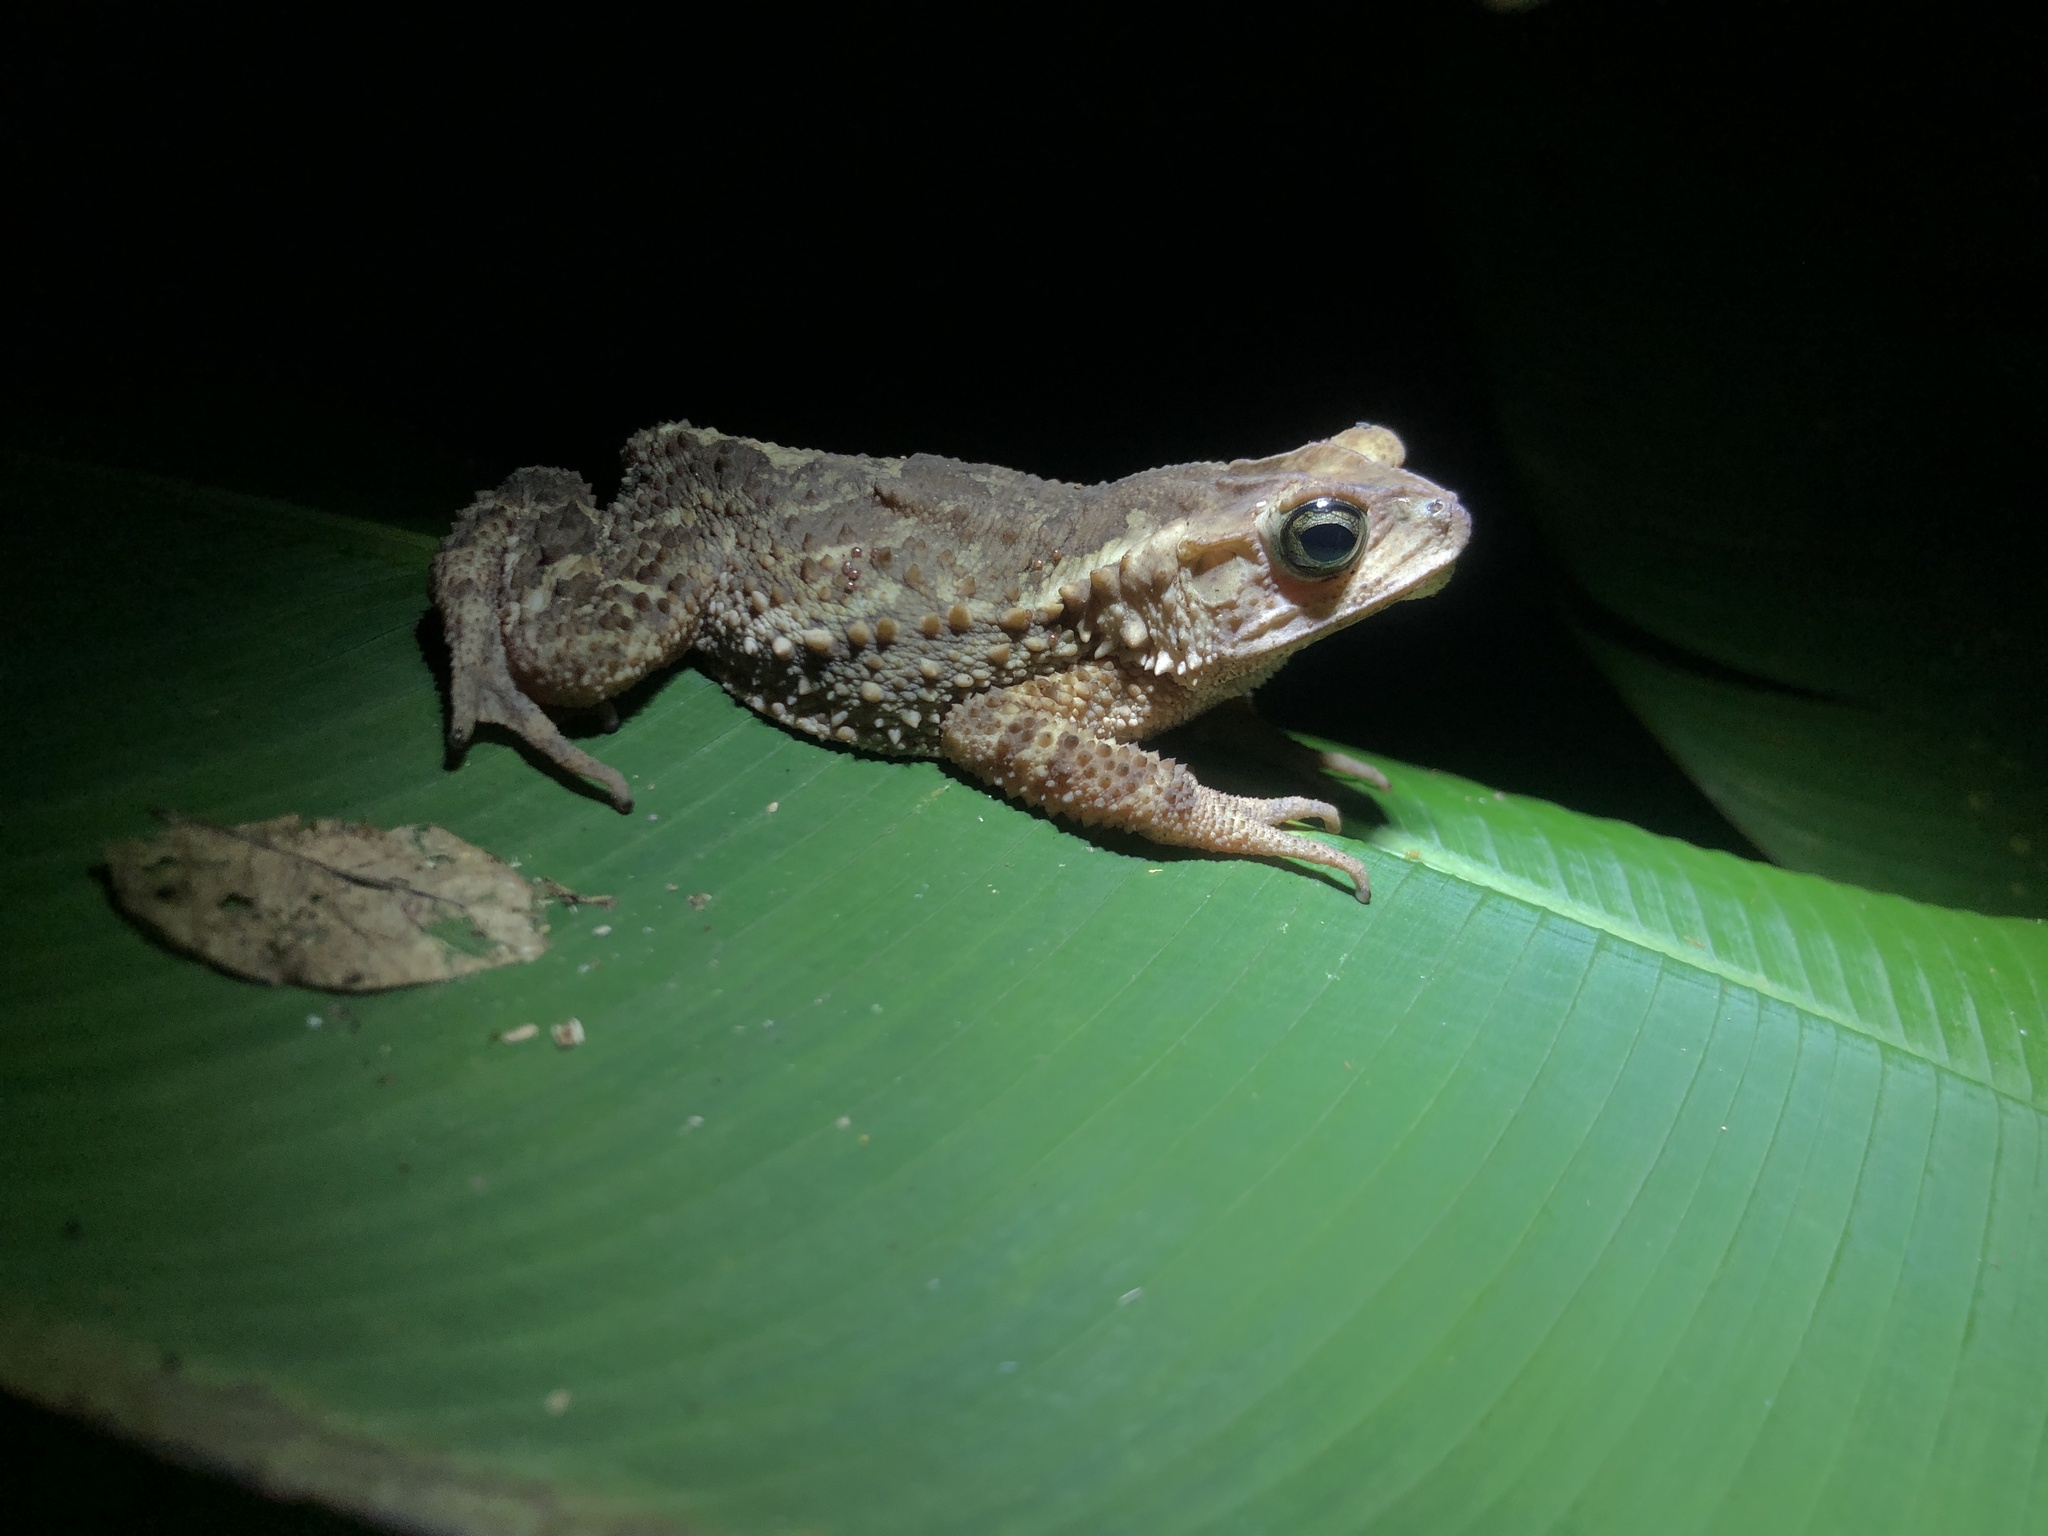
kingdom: Animalia
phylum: Chordata
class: Amphibia
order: Anura
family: Bufonidae
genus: Incilius
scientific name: Incilius coniferus
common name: Evergreen toad
